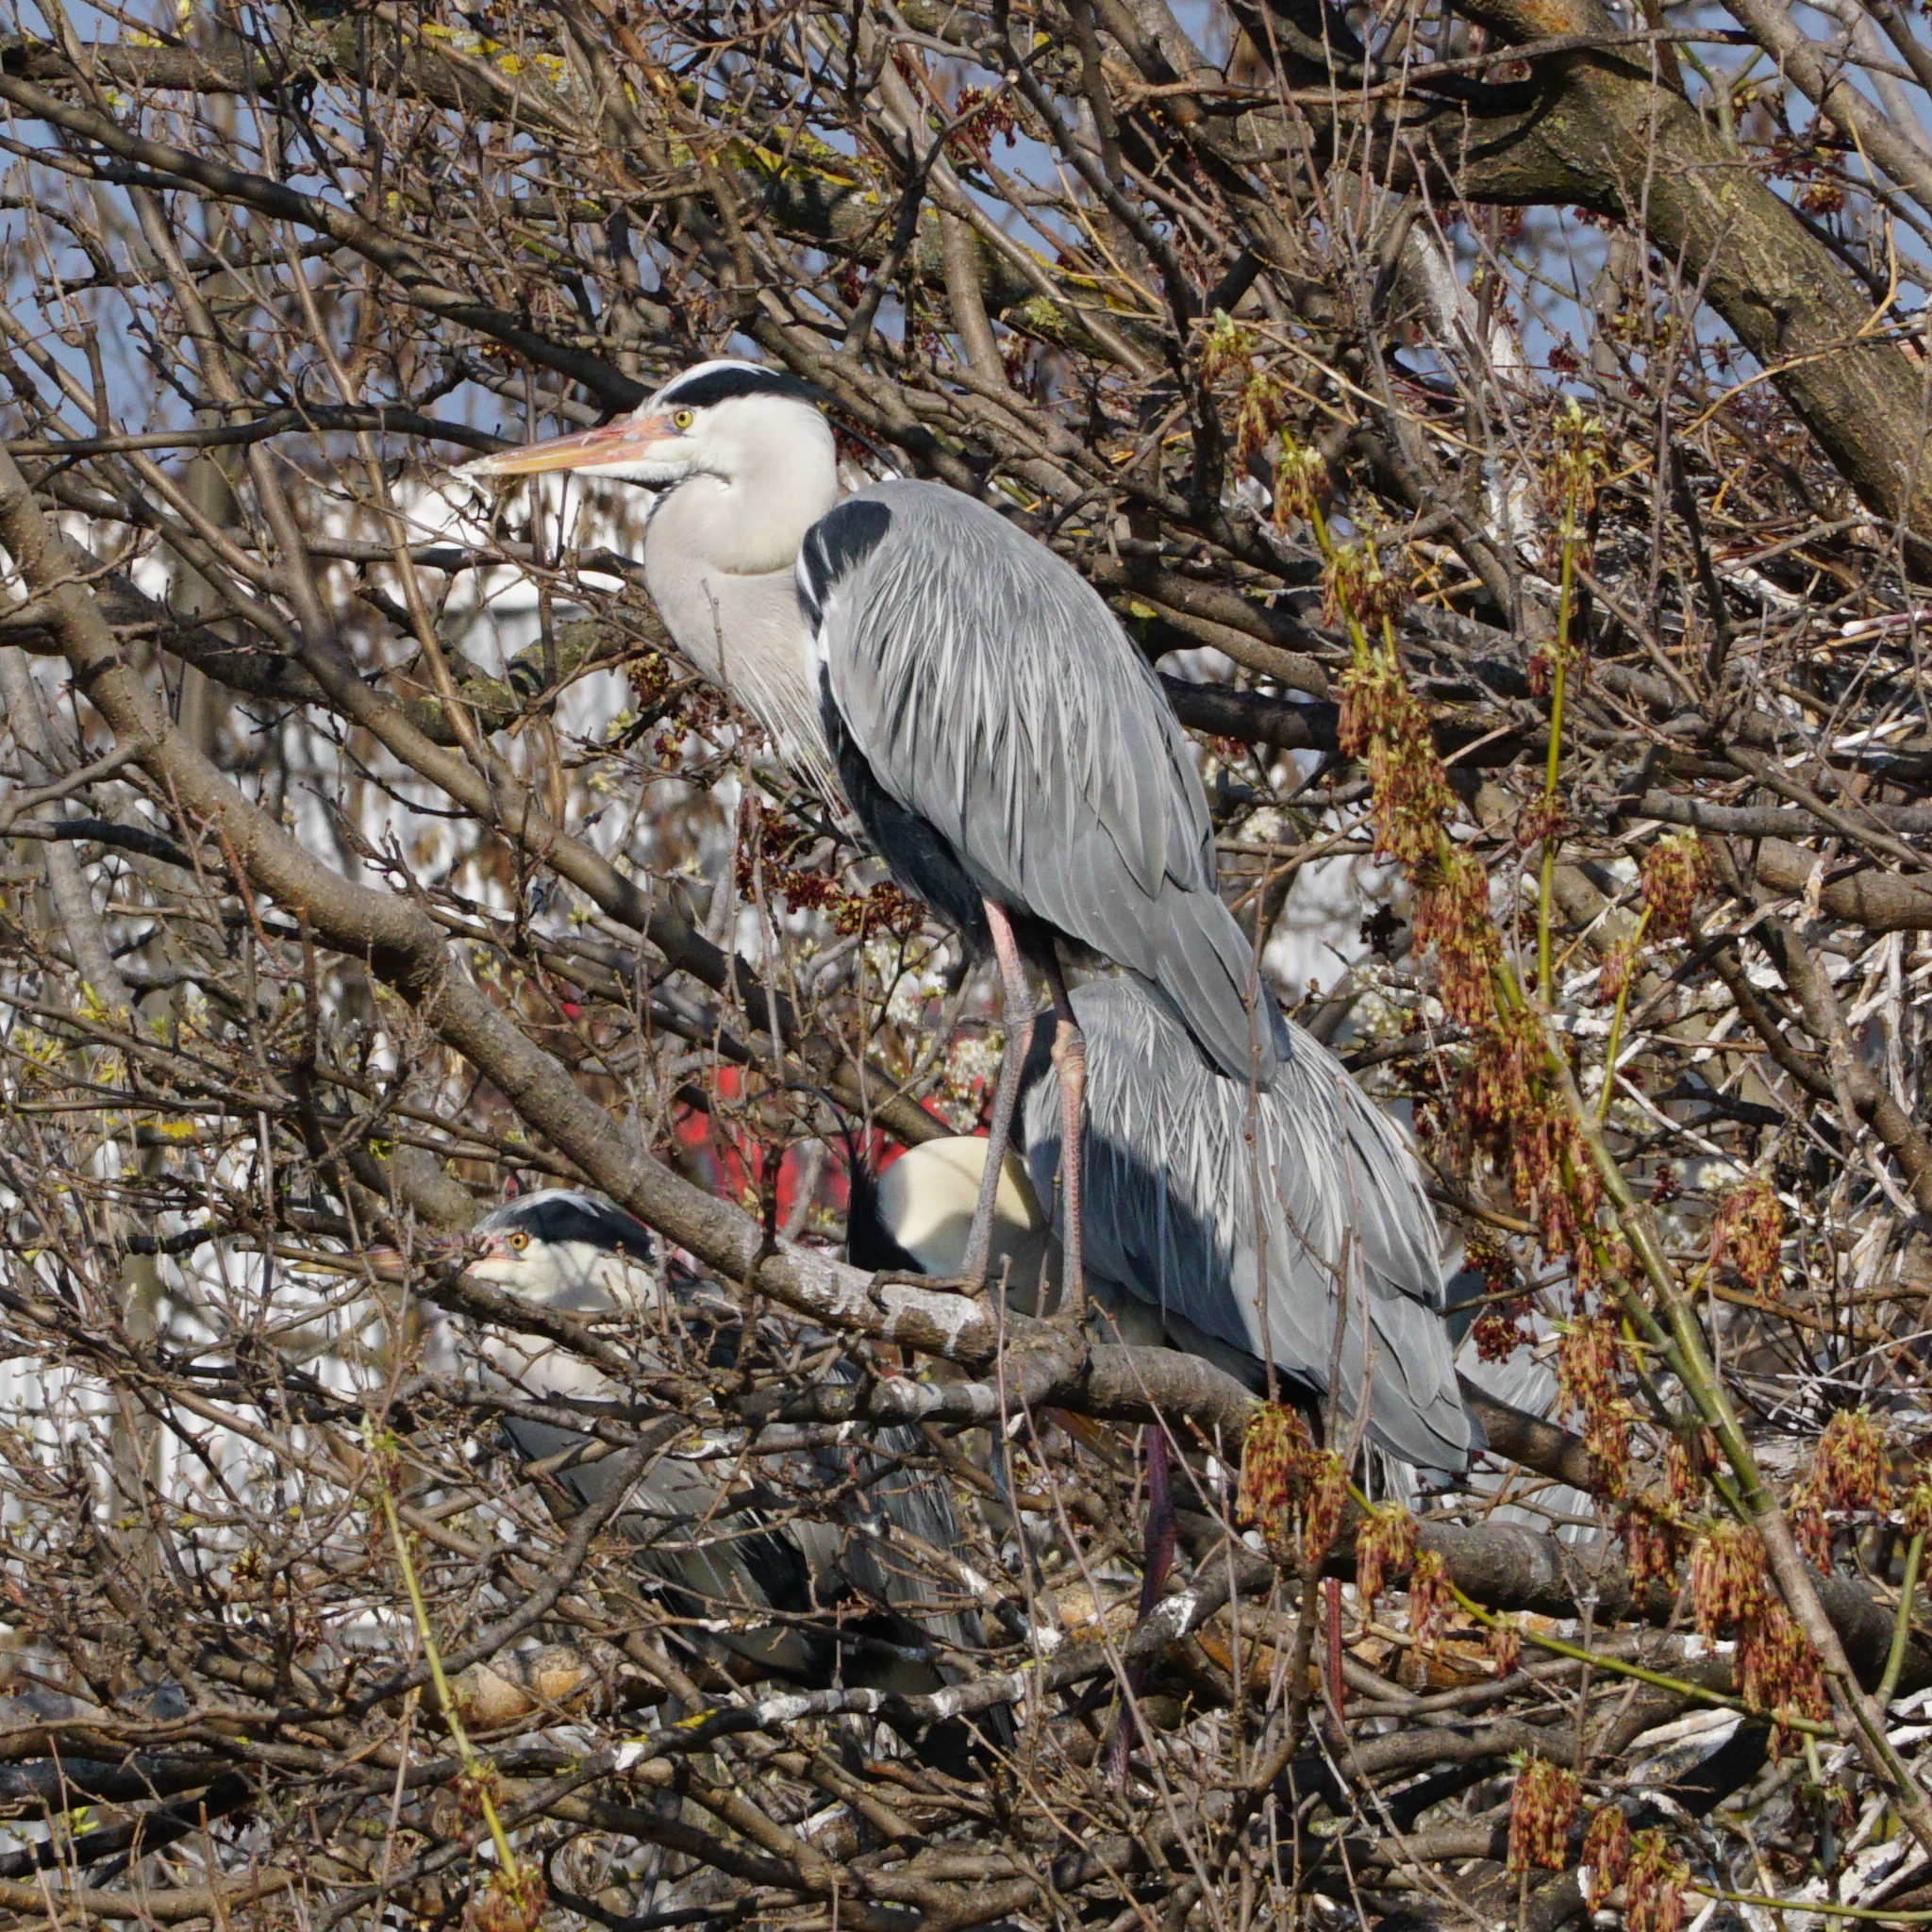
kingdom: Animalia
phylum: Chordata
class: Aves
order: Pelecaniformes
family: Ardeidae
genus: Ardea
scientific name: Ardea cinerea
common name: Grey heron
